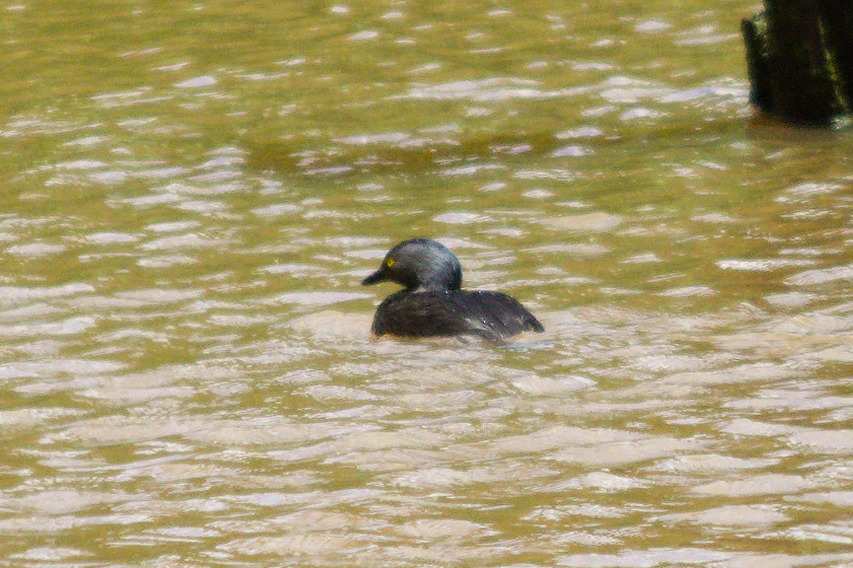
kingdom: Animalia
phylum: Chordata
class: Aves
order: Podicipediformes
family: Podicipedidae
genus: Tachybaptus
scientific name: Tachybaptus dominicus
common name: Least grebe
